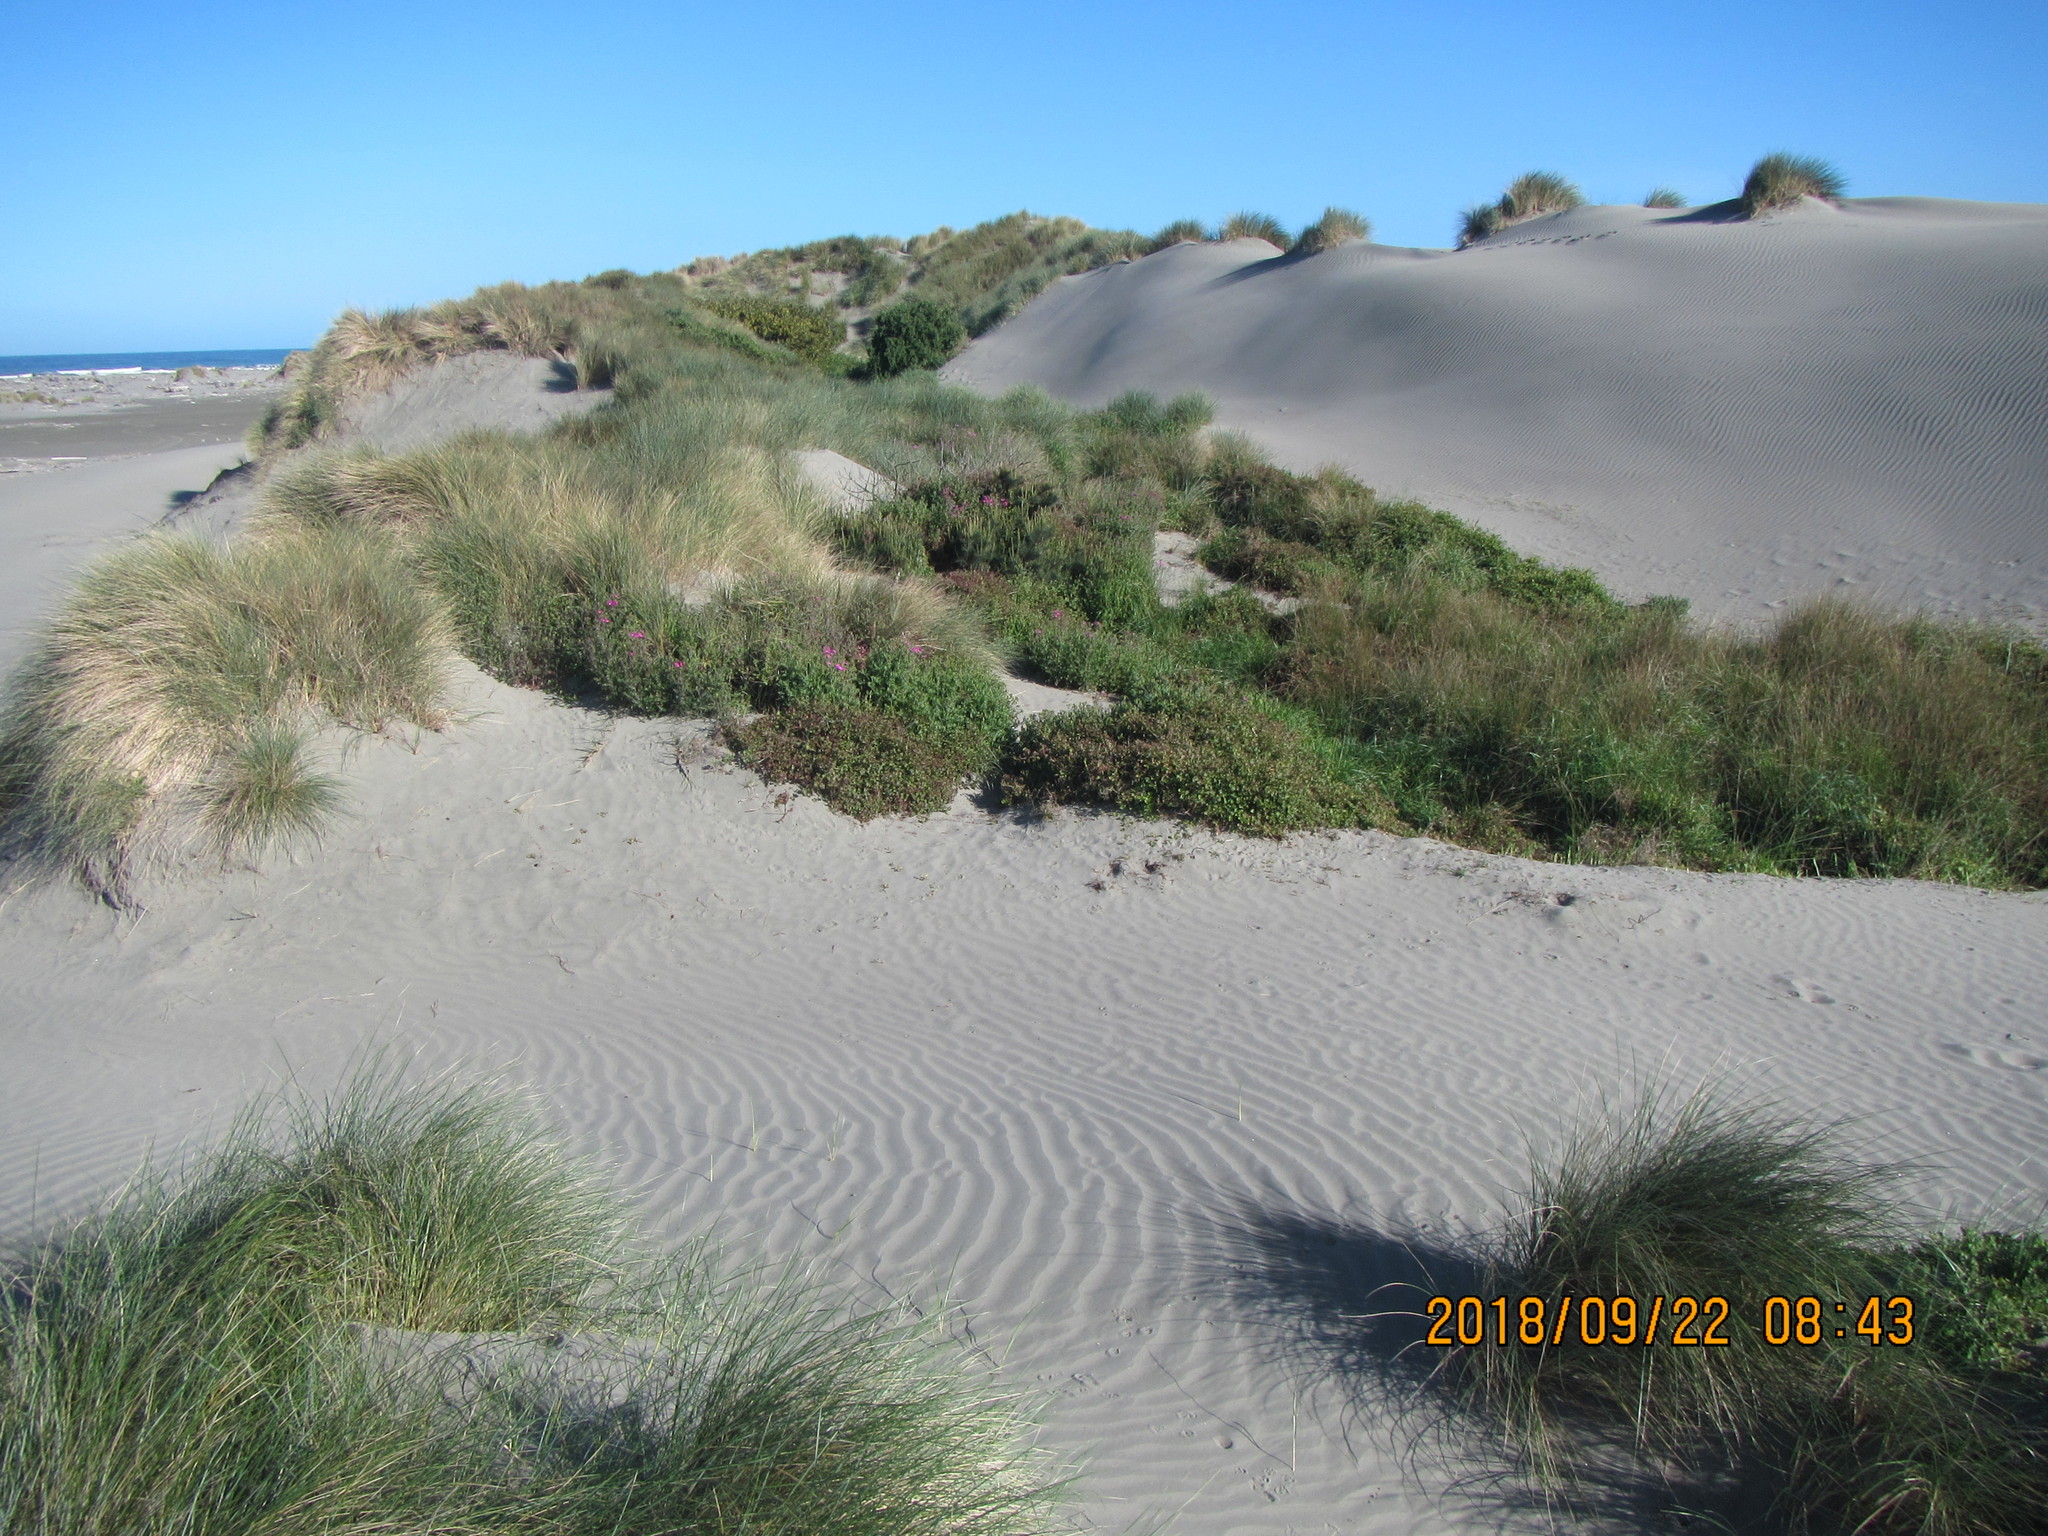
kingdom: Plantae
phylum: Tracheophyta
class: Magnoliopsida
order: Caryophyllales
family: Polygonaceae
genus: Muehlenbeckia
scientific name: Muehlenbeckia complexa
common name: Wireplant
